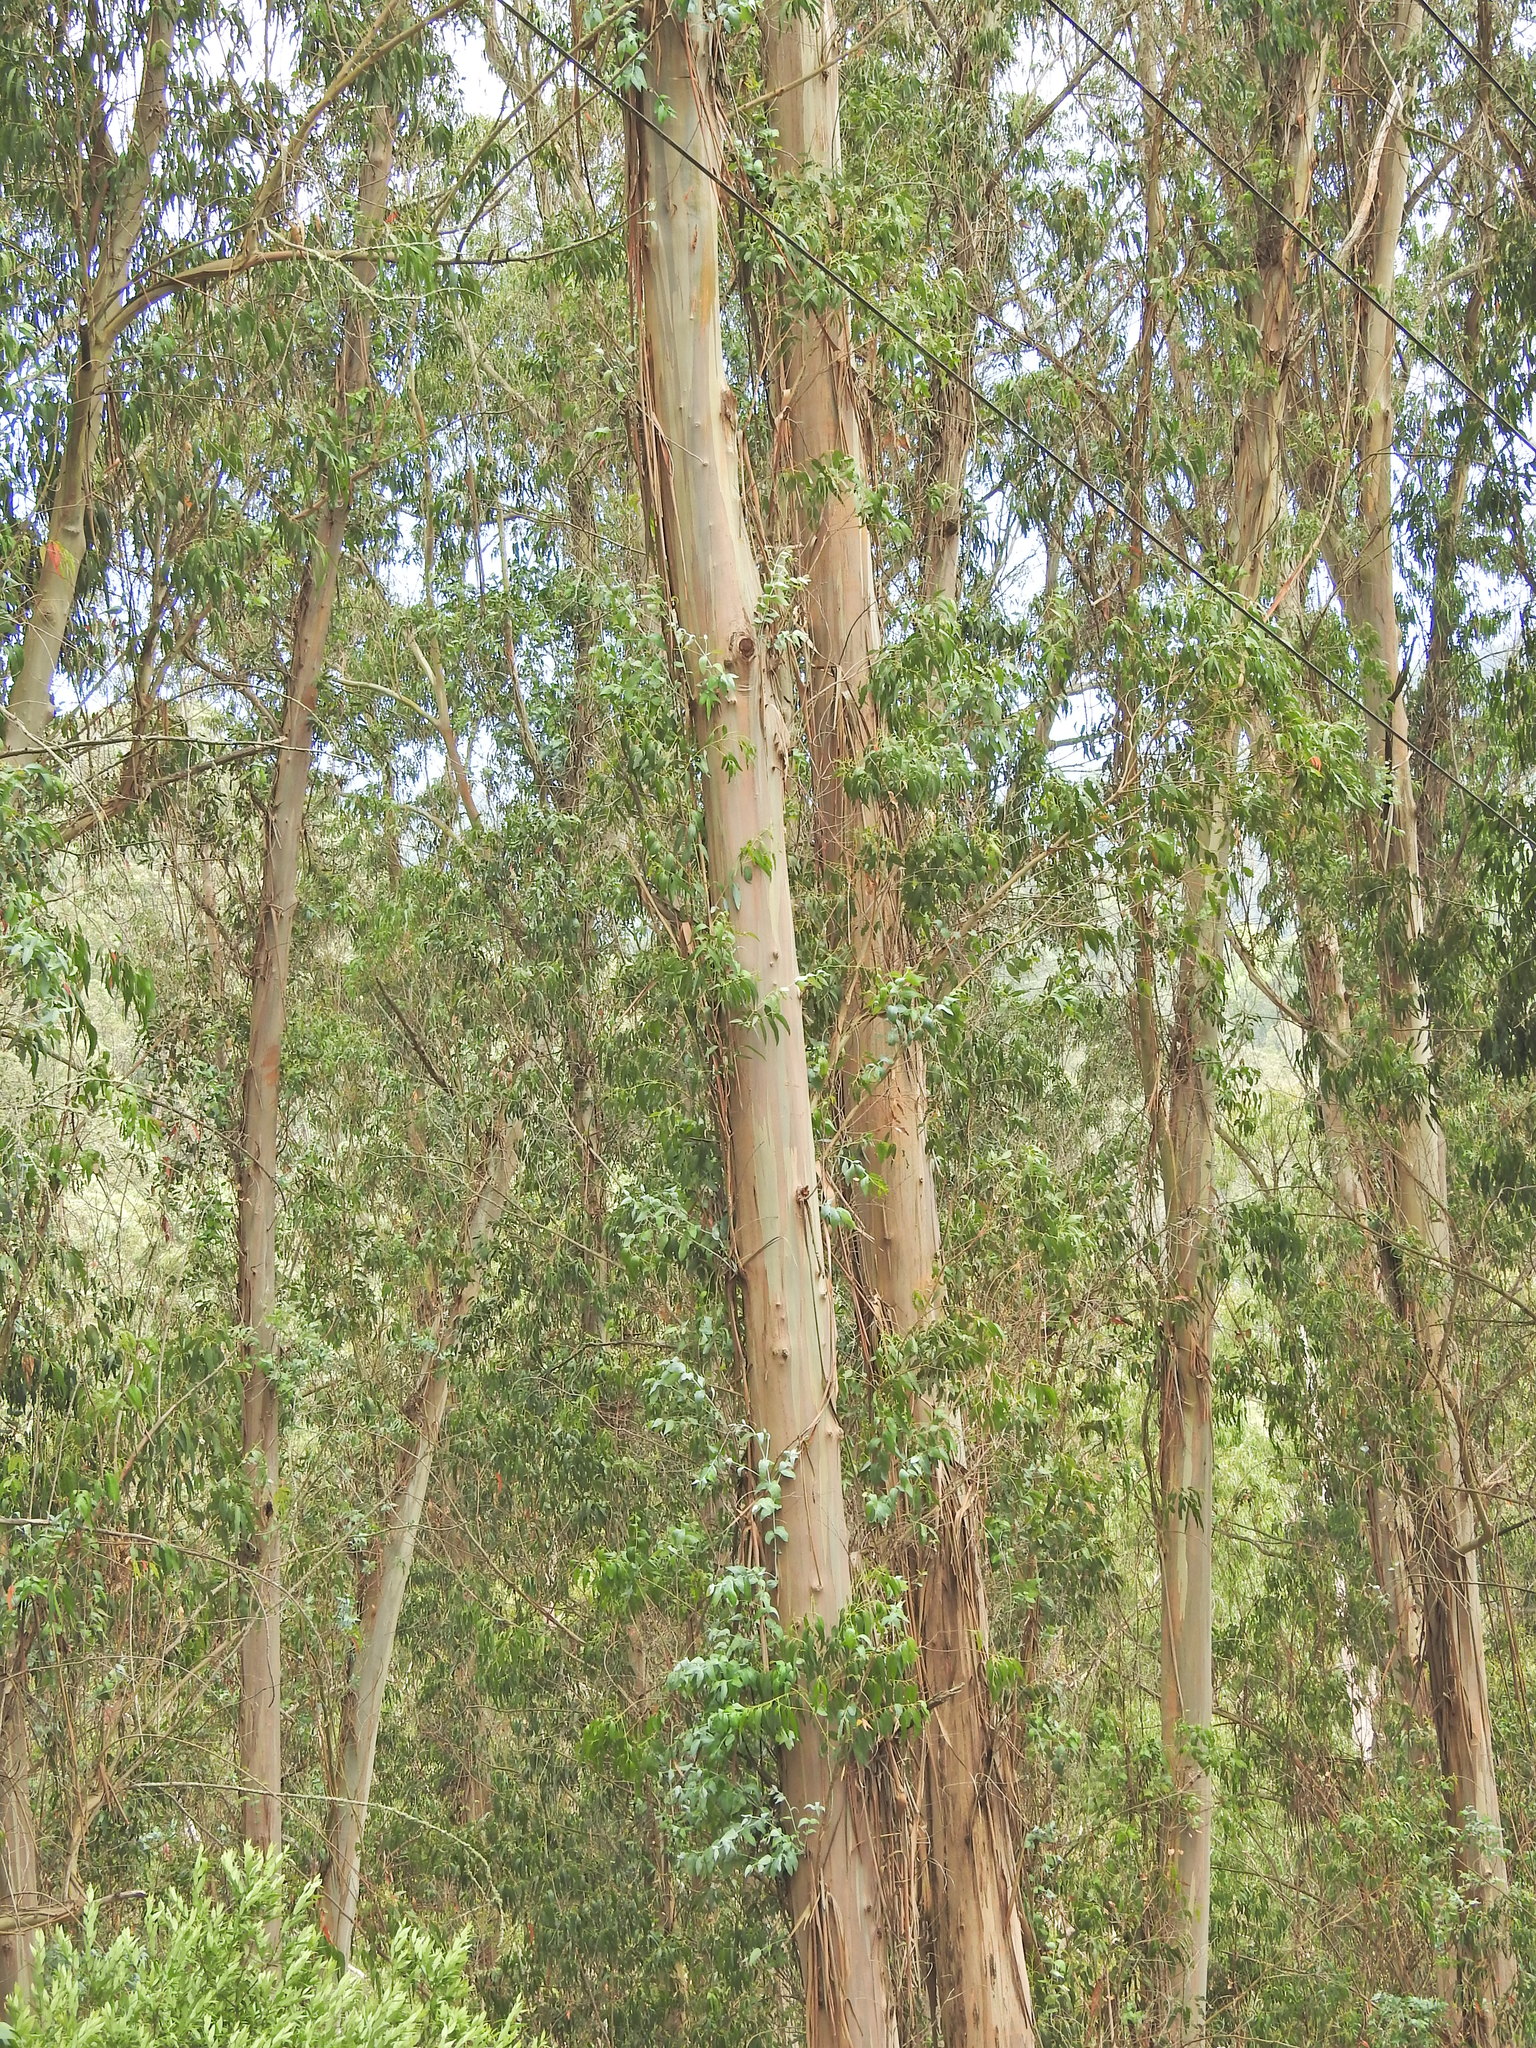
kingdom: Plantae
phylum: Tracheophyta
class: Magnoliopsida
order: Myrtales
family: Myrtaceae
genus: Eucalyptus
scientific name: Eucalyptus globulus
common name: Southern blue-gum
